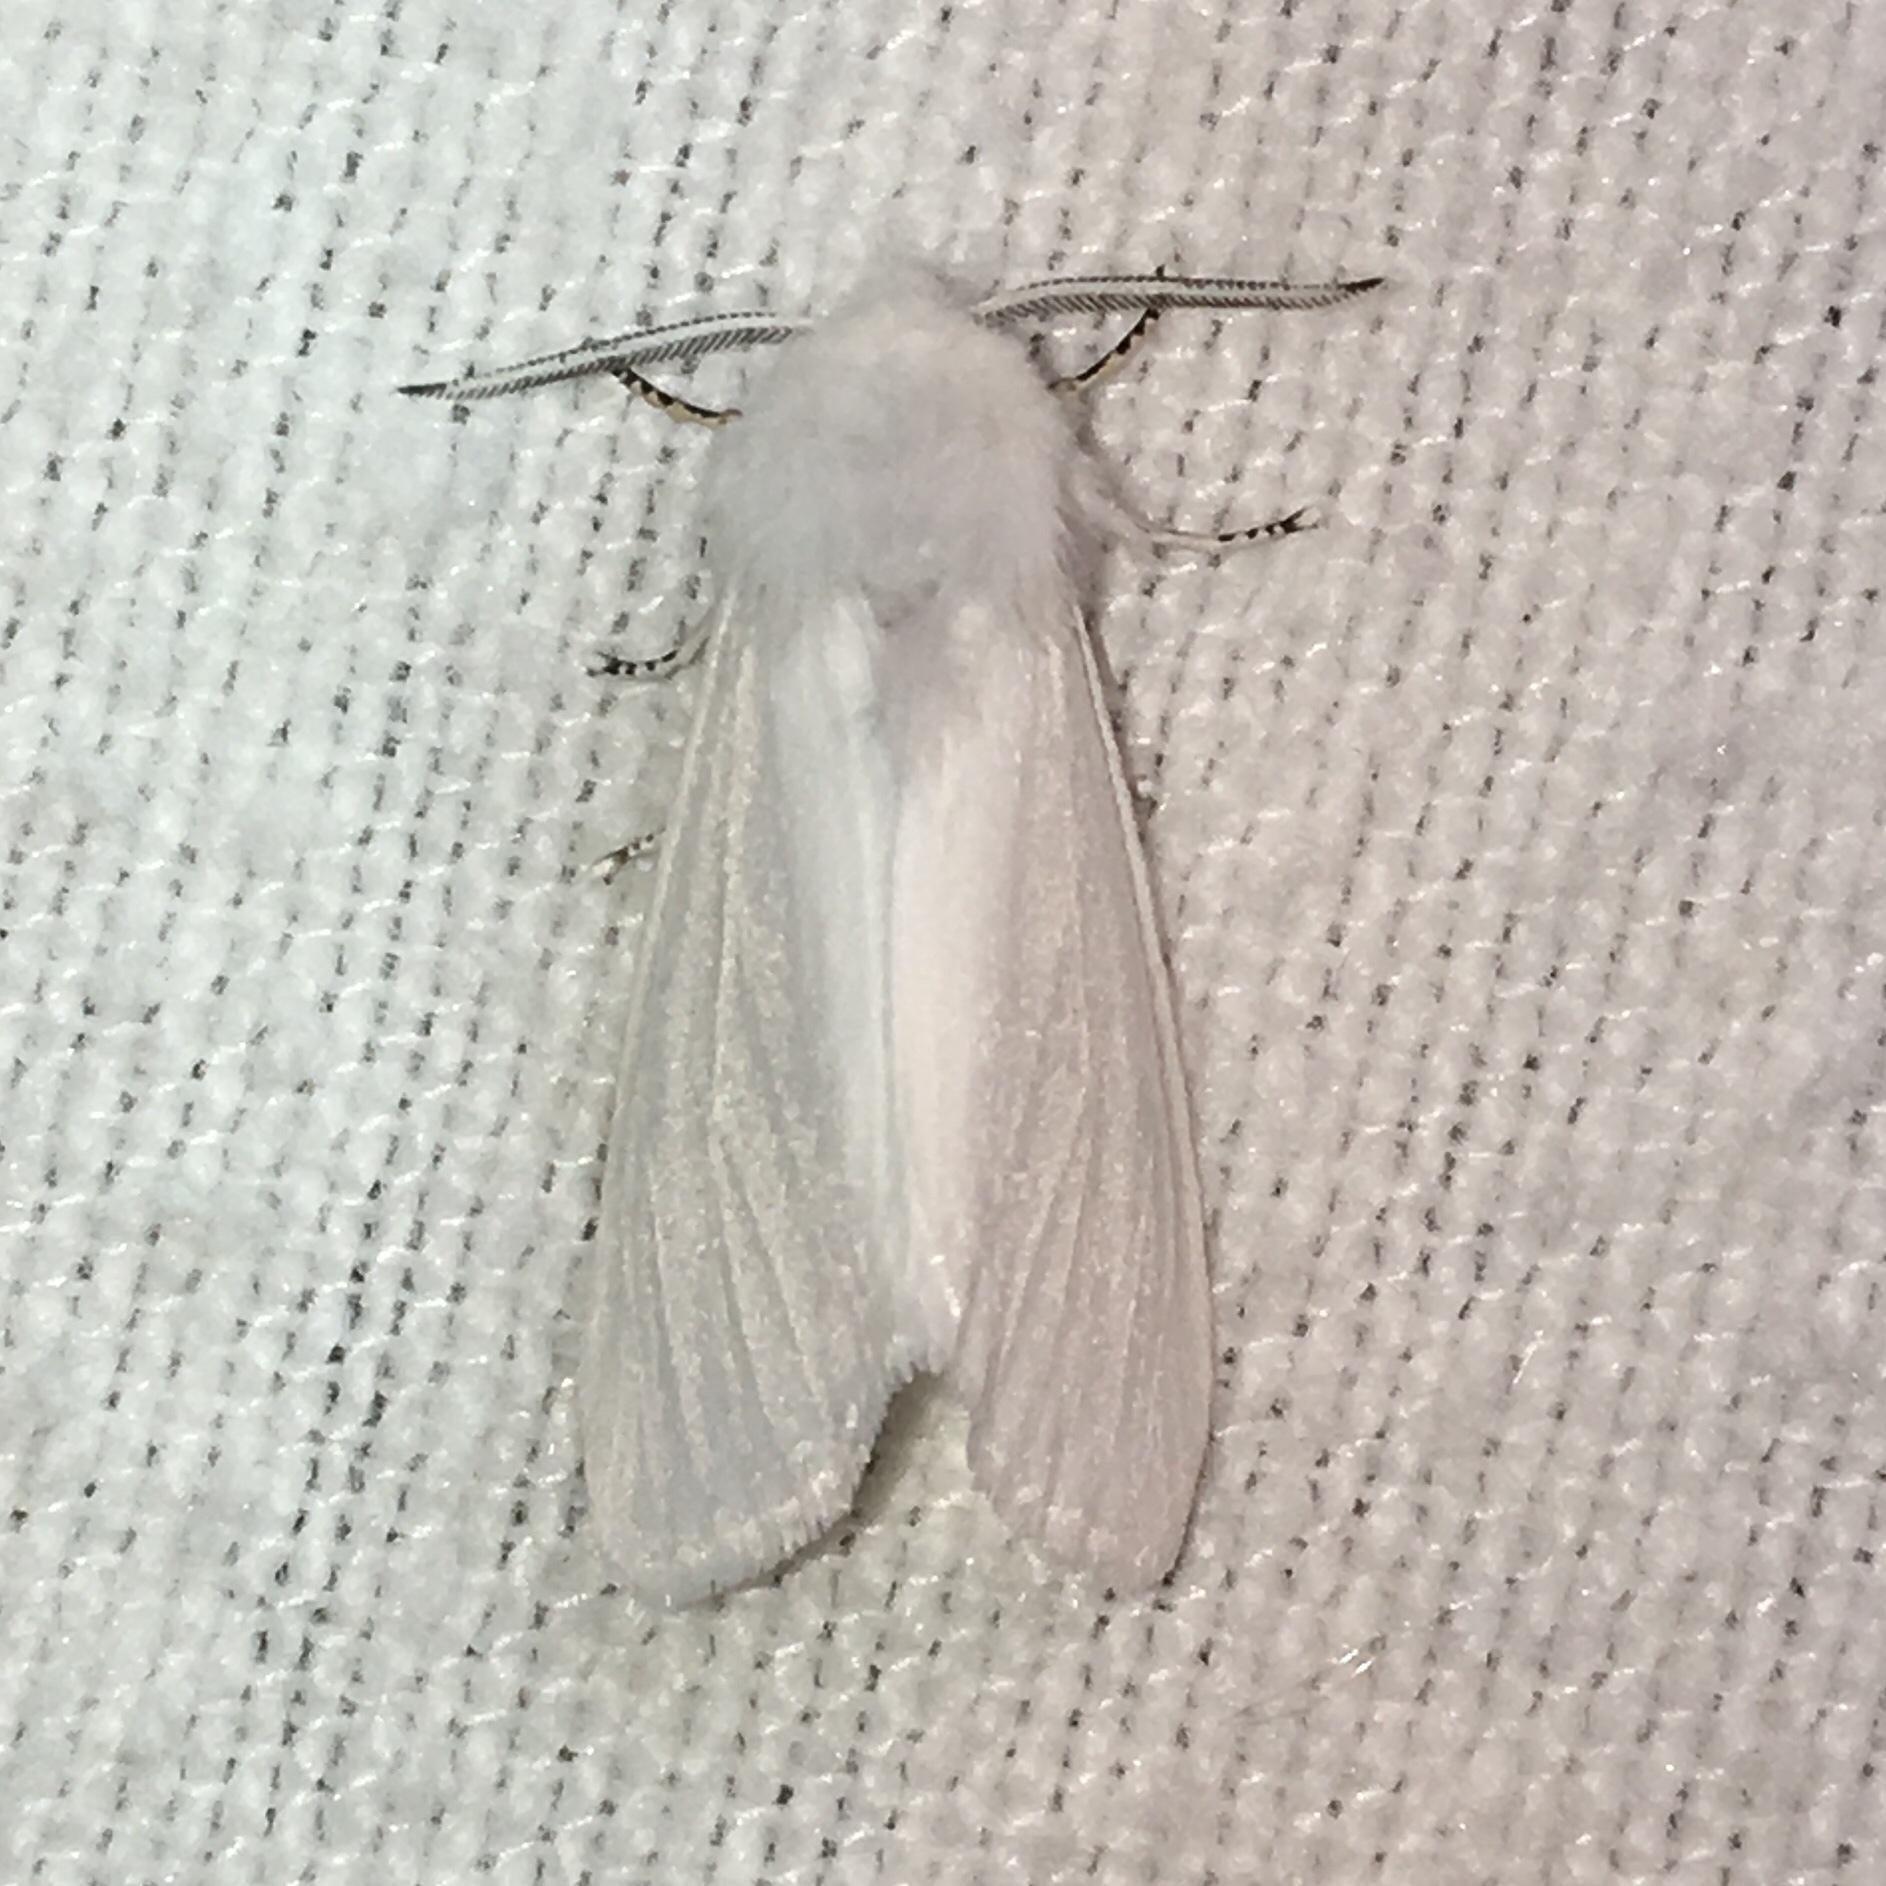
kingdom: Animalia
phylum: Arthropoda
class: Insecta
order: Lepidoptera
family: Erebidae
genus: Hyphantria
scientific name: Hyphantria cunea
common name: American white moth
